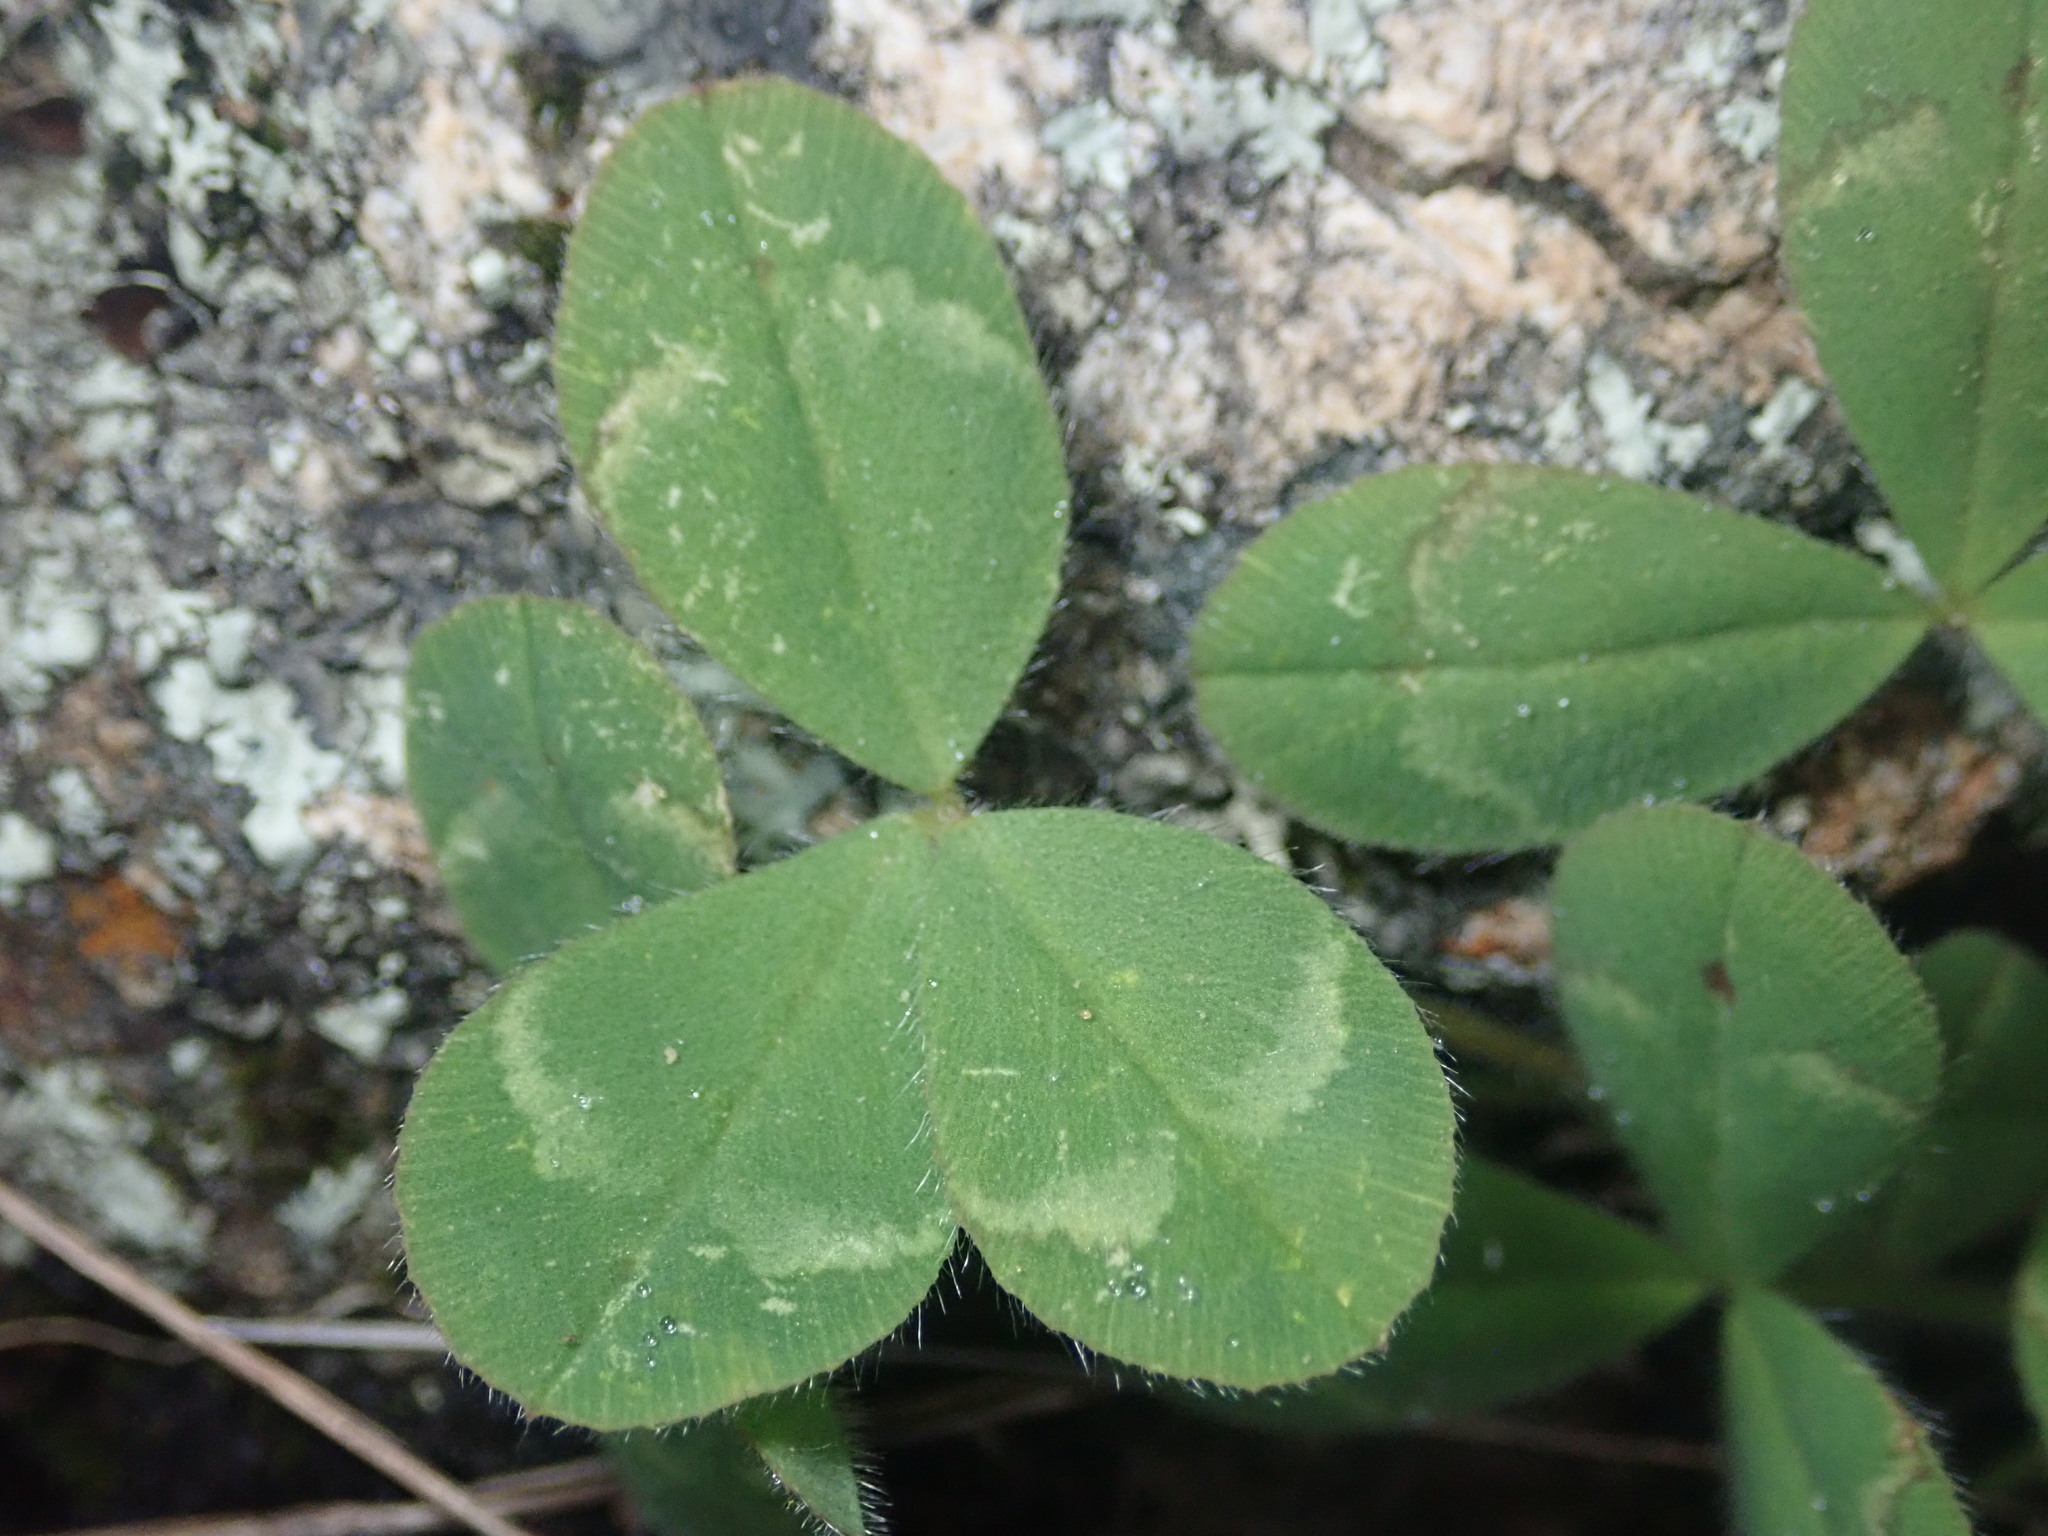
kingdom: Plantae
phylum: Tracheophyta
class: Magnoliopsida
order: Fabales
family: Fabaceae
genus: Trifolium
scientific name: Trifolium hirtum
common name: Rose clover
